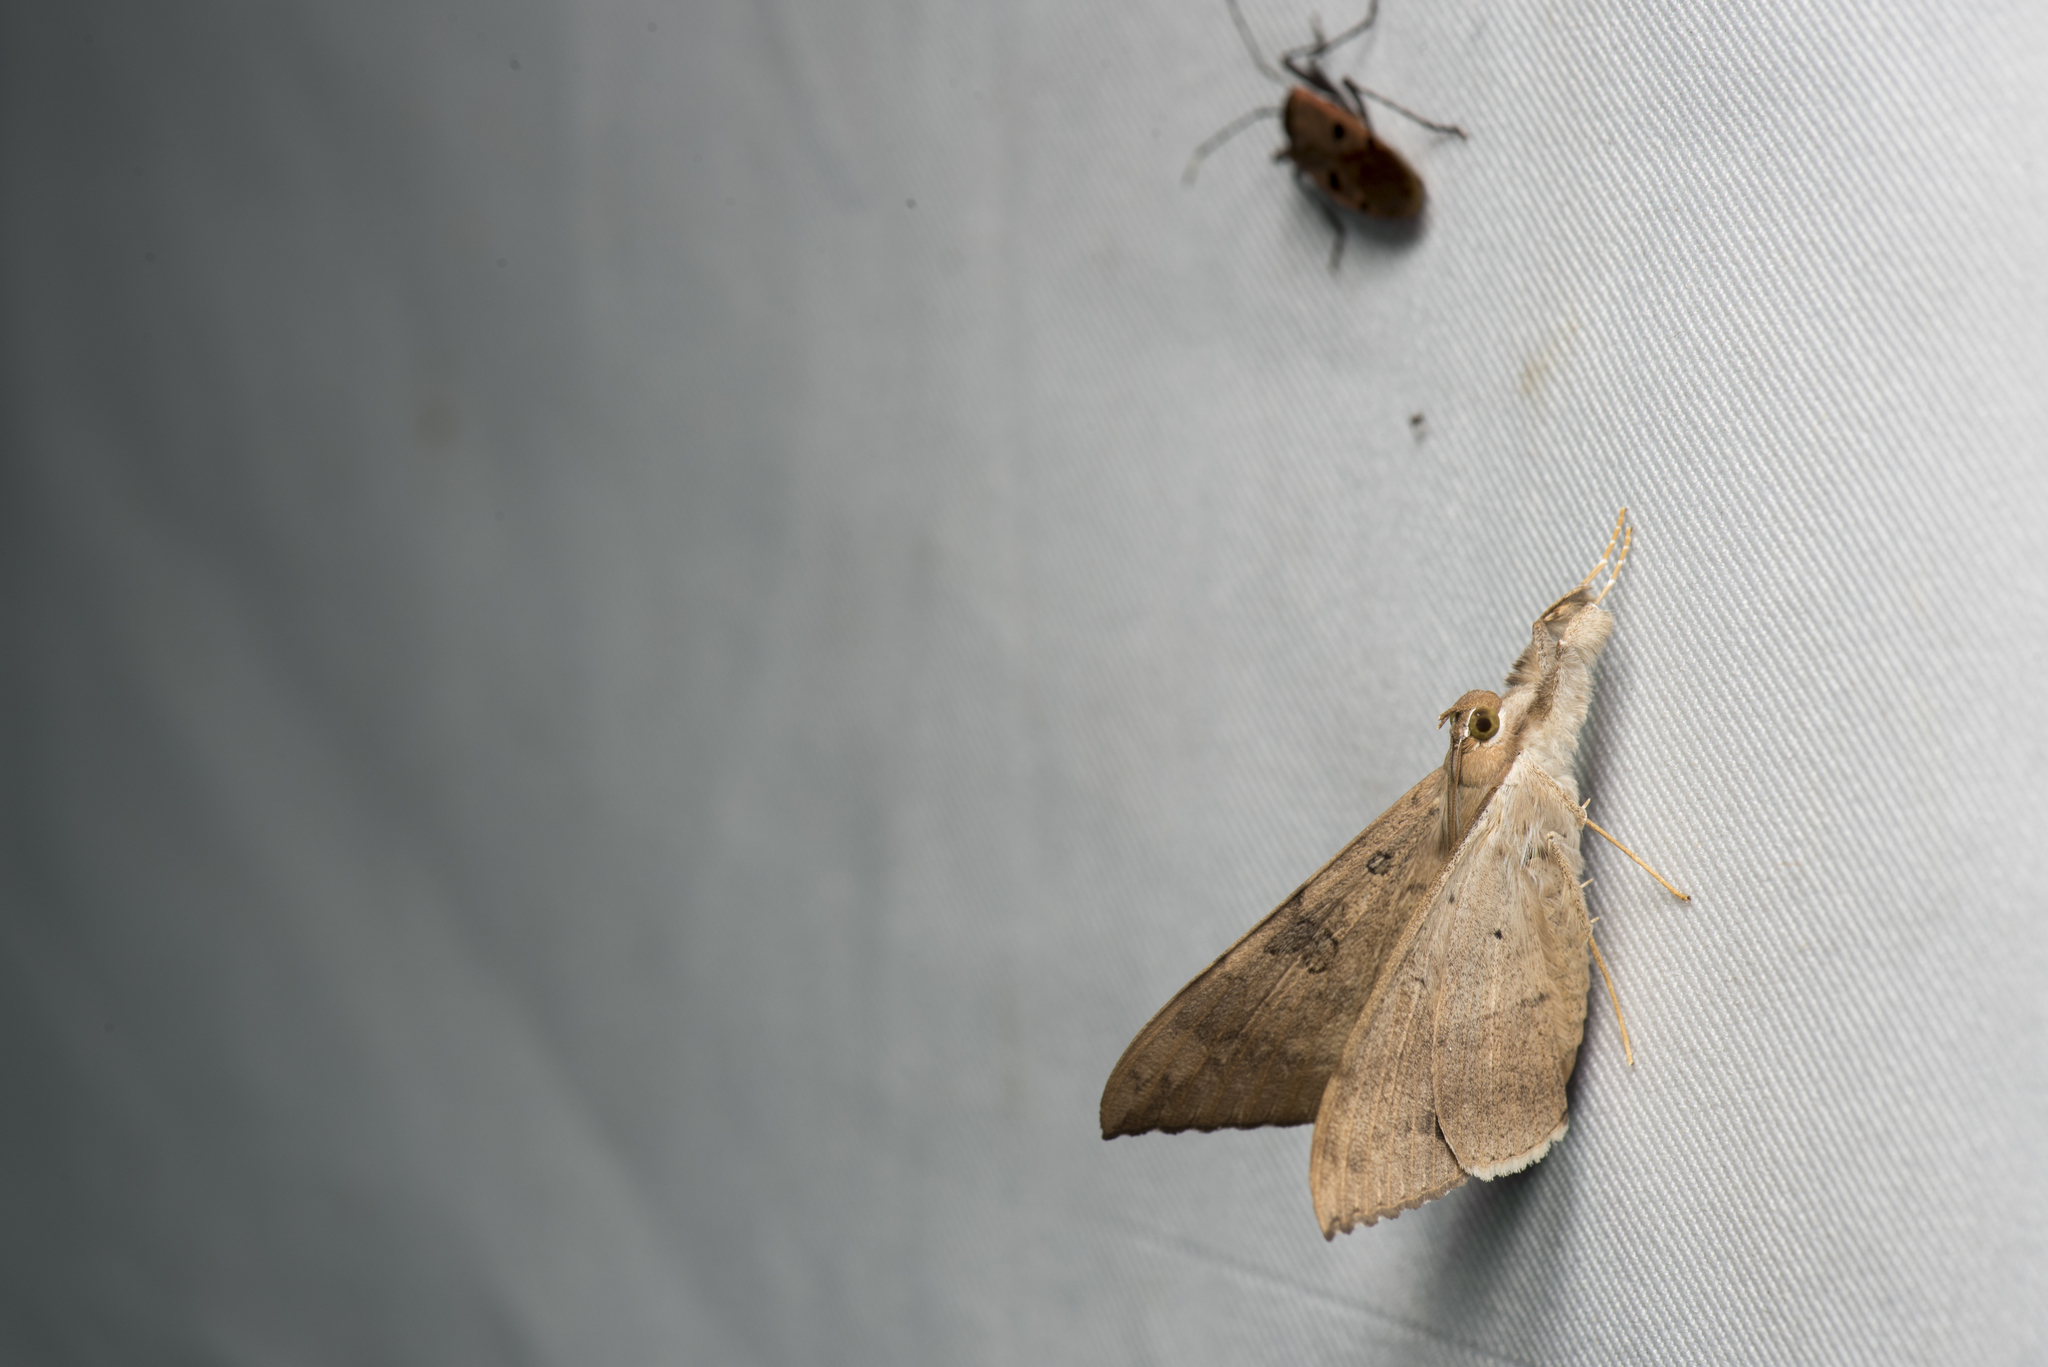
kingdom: Animalia
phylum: Arthropoda
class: Insecta
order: Lepidoptera
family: Erebidae
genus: Oxyodes
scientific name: Oxyodes scrobiculata
